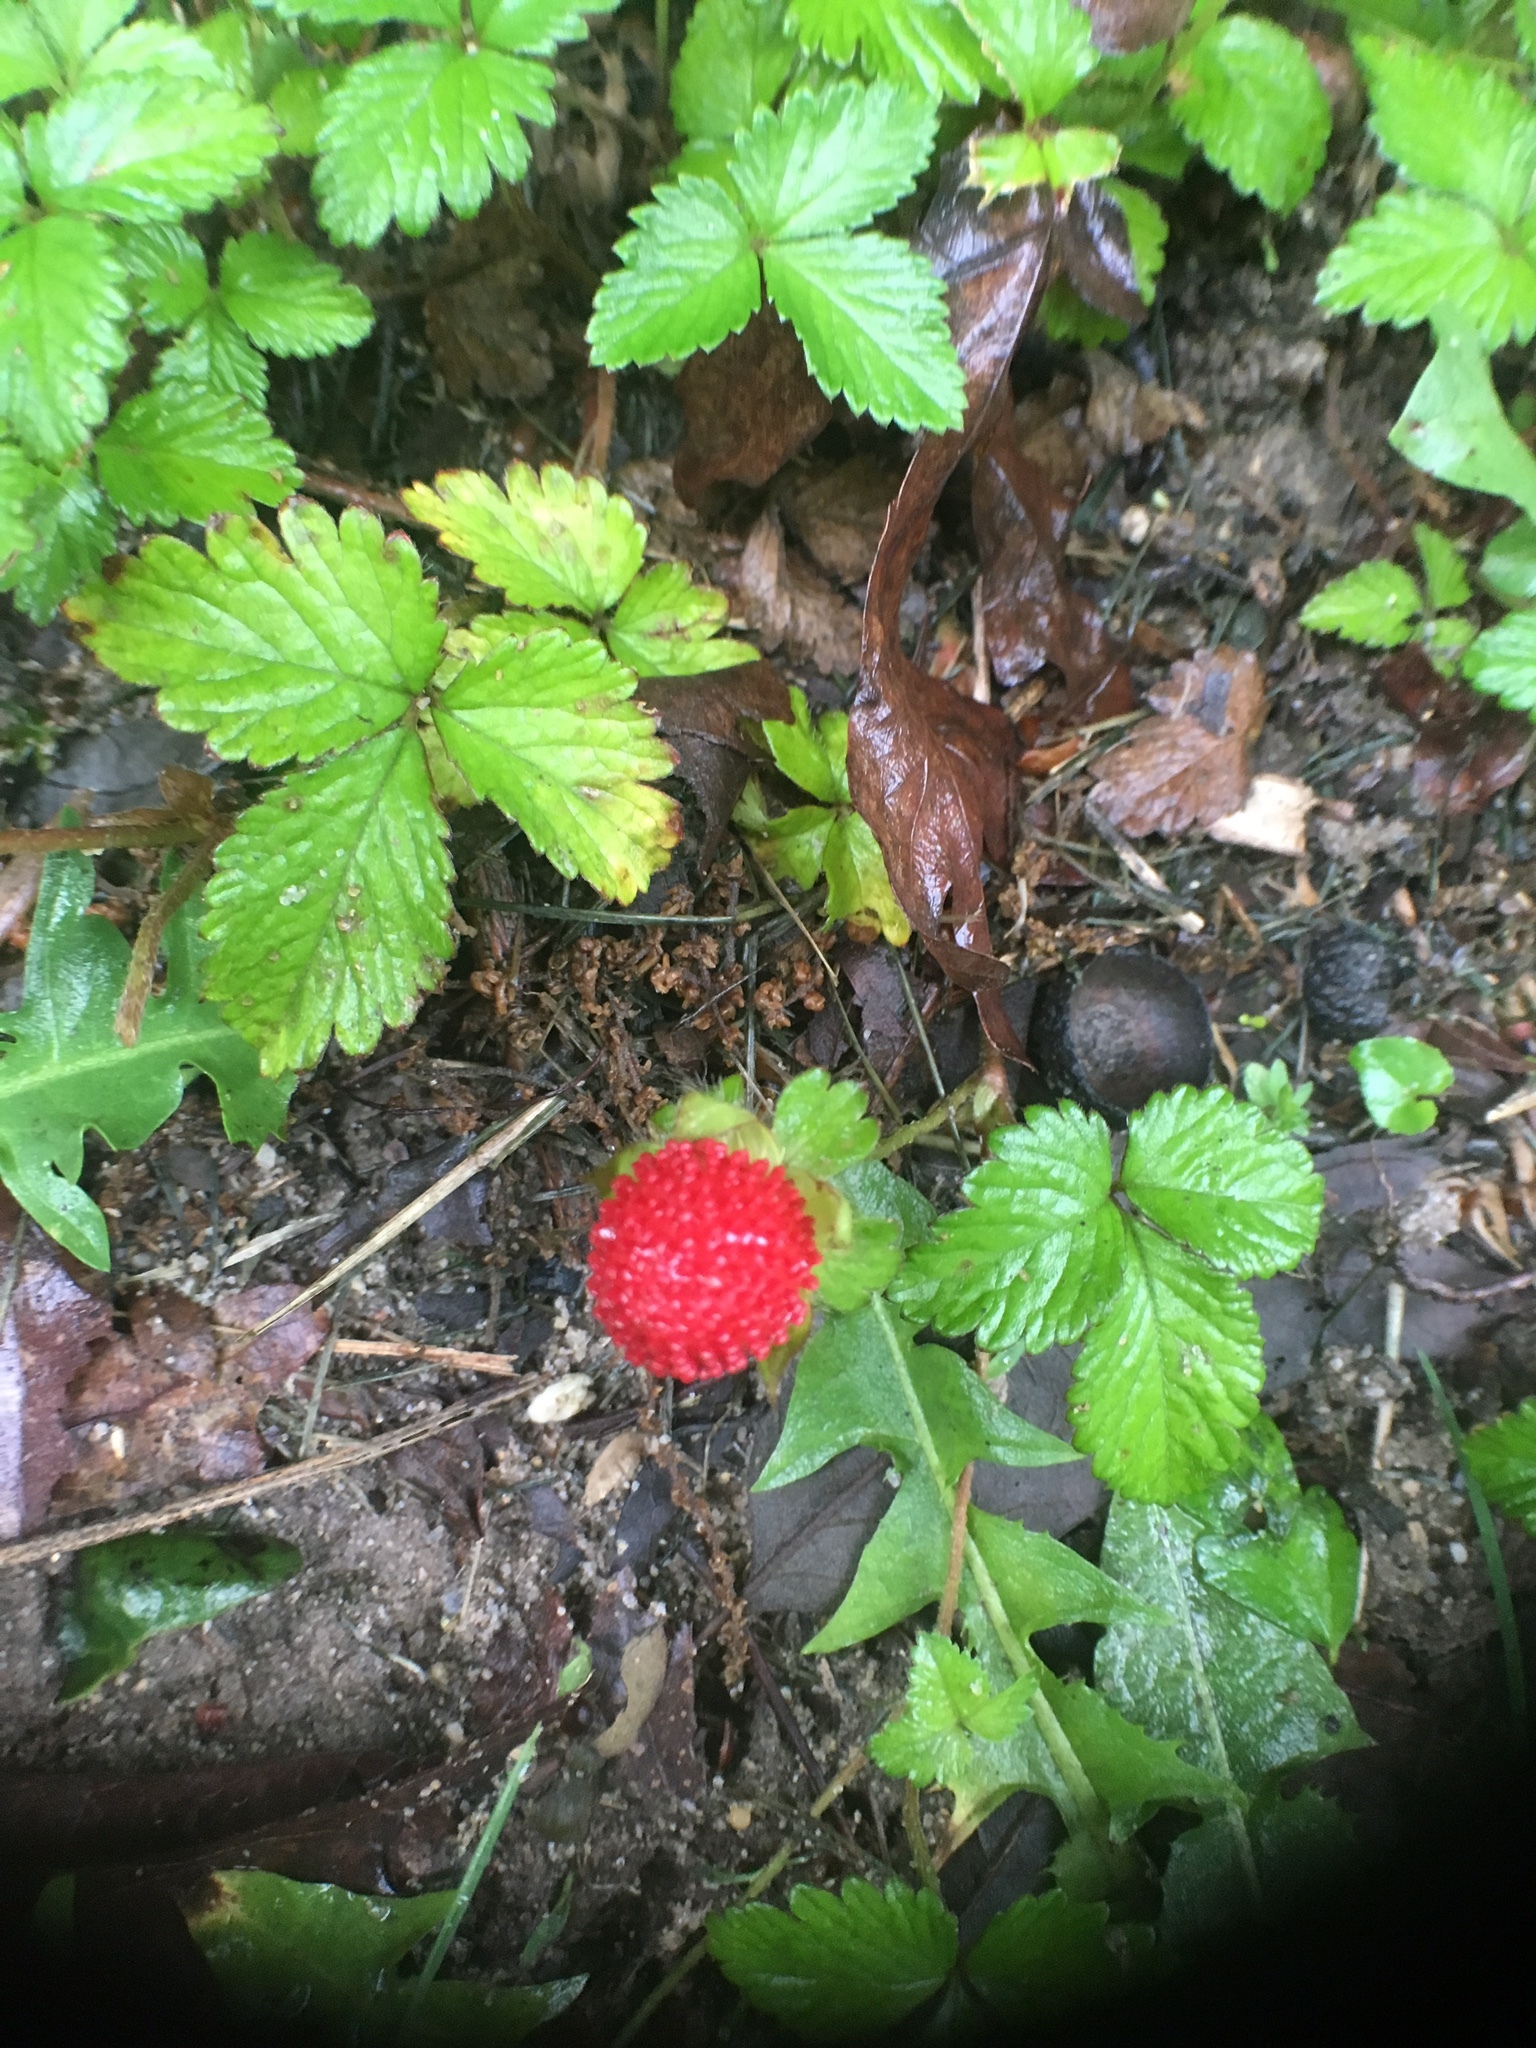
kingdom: Plantae
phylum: Tracheophyta
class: Magnoliopsida
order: Rosales
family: Rosaceae
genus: Potentilla
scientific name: Potentilla indica
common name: Yellow-flowered strawberry
